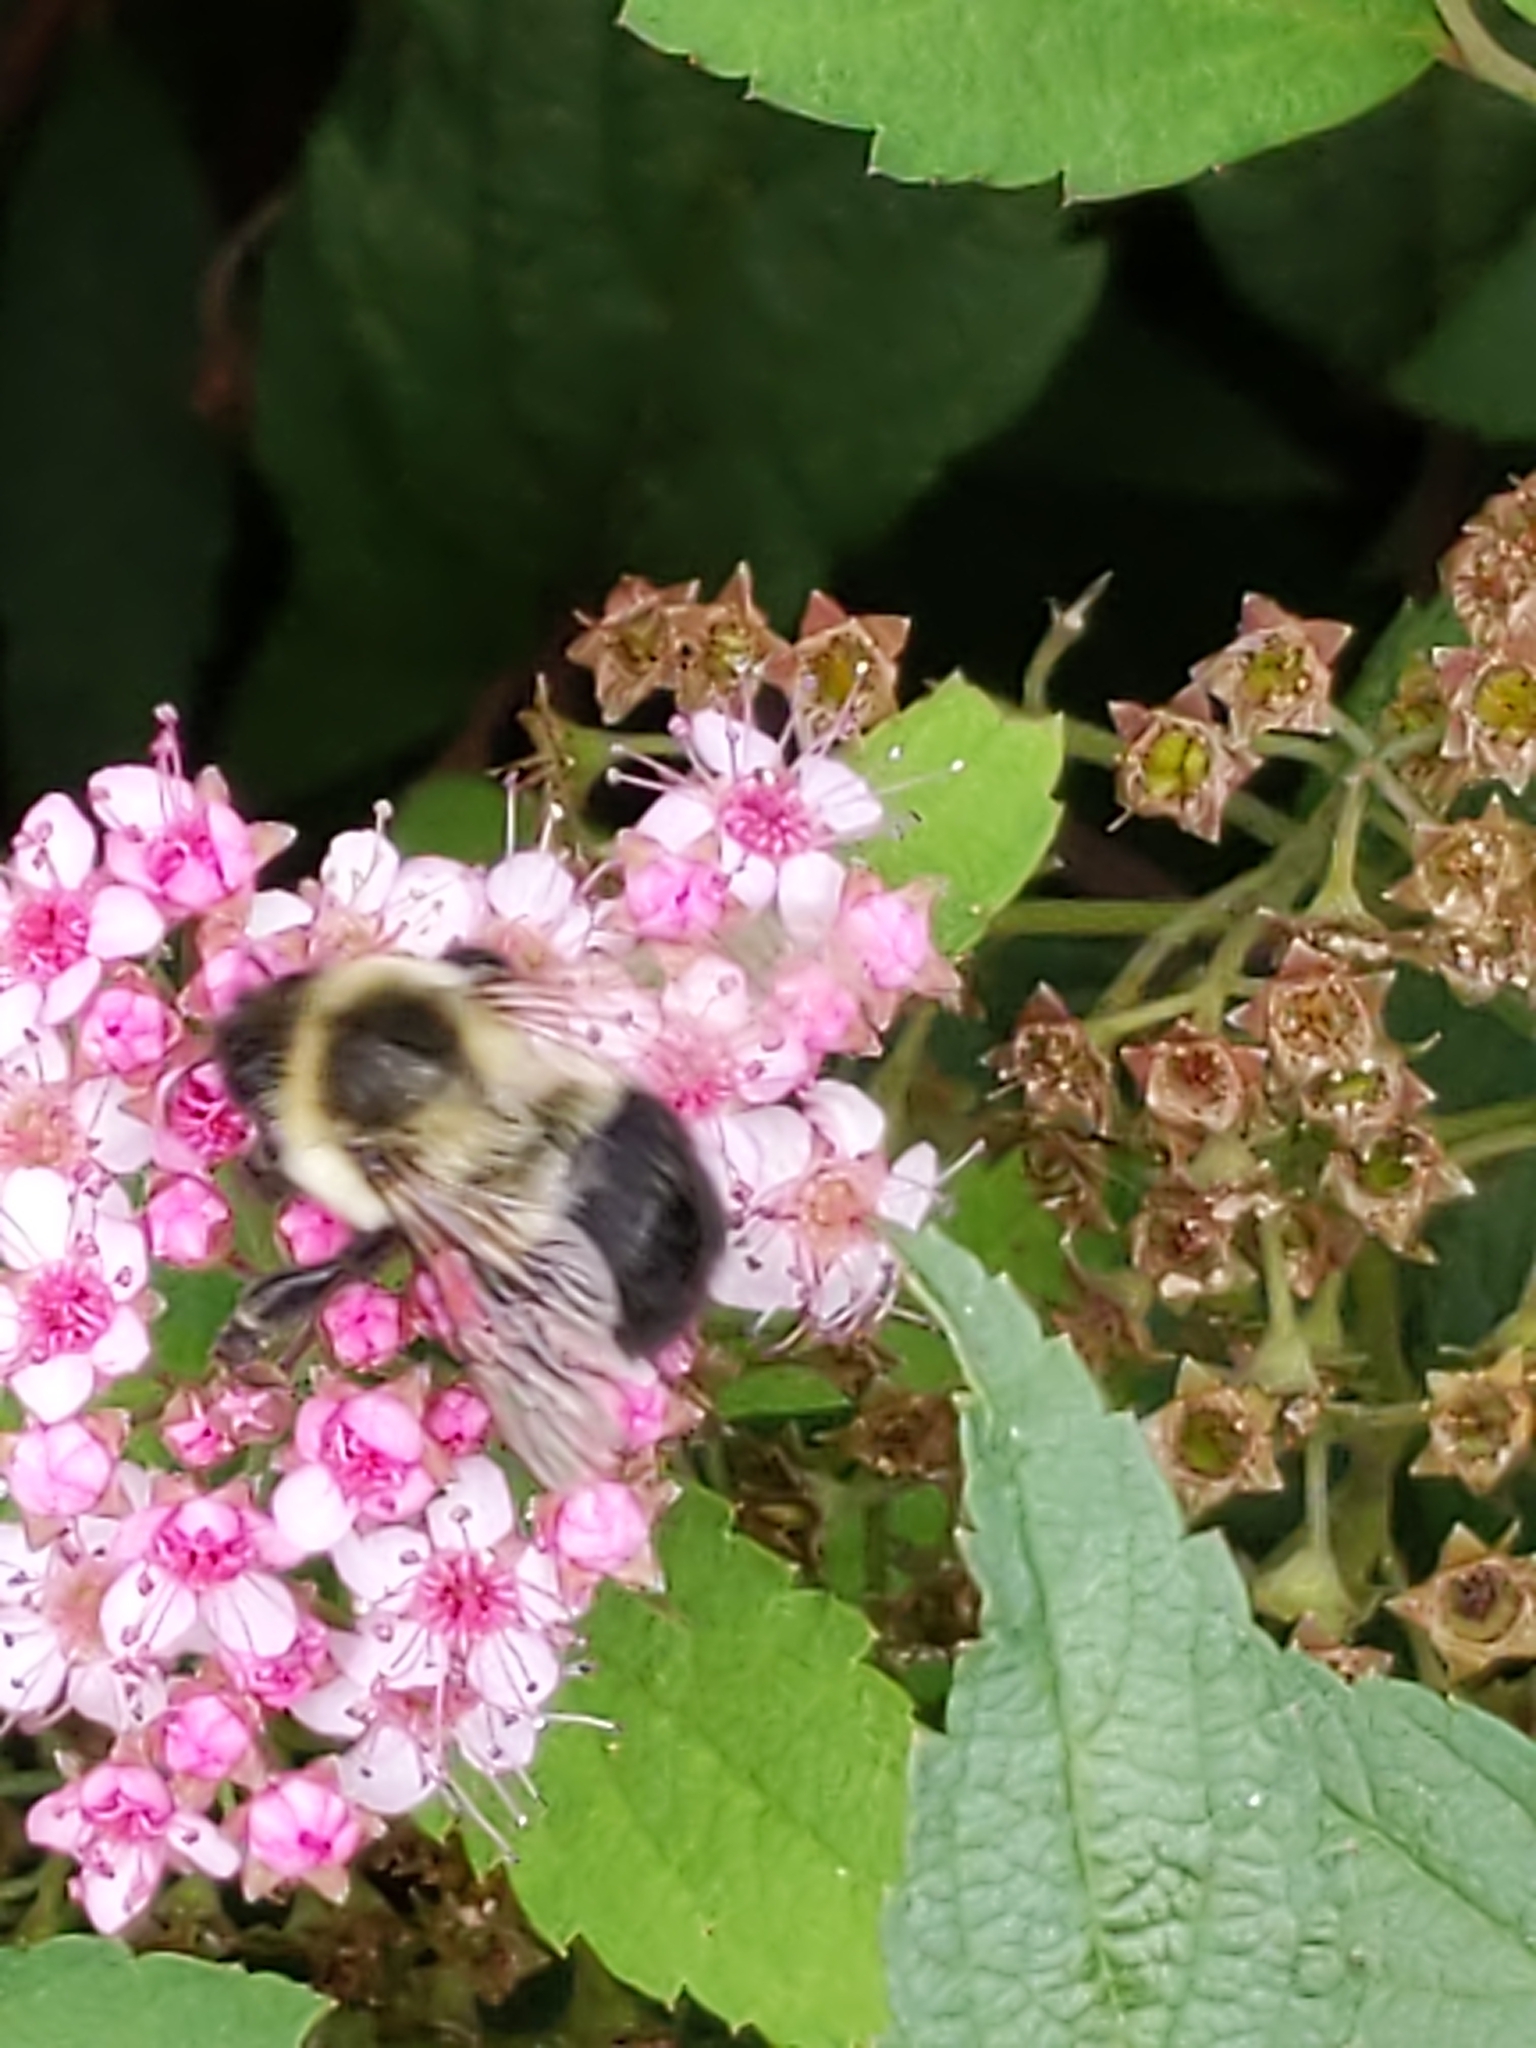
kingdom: Animalia
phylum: Arthropoda
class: Insecta
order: Hymenoptera
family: Apidae
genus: Bombus
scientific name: Bombus impatiens
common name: Common eastern bumble bee
